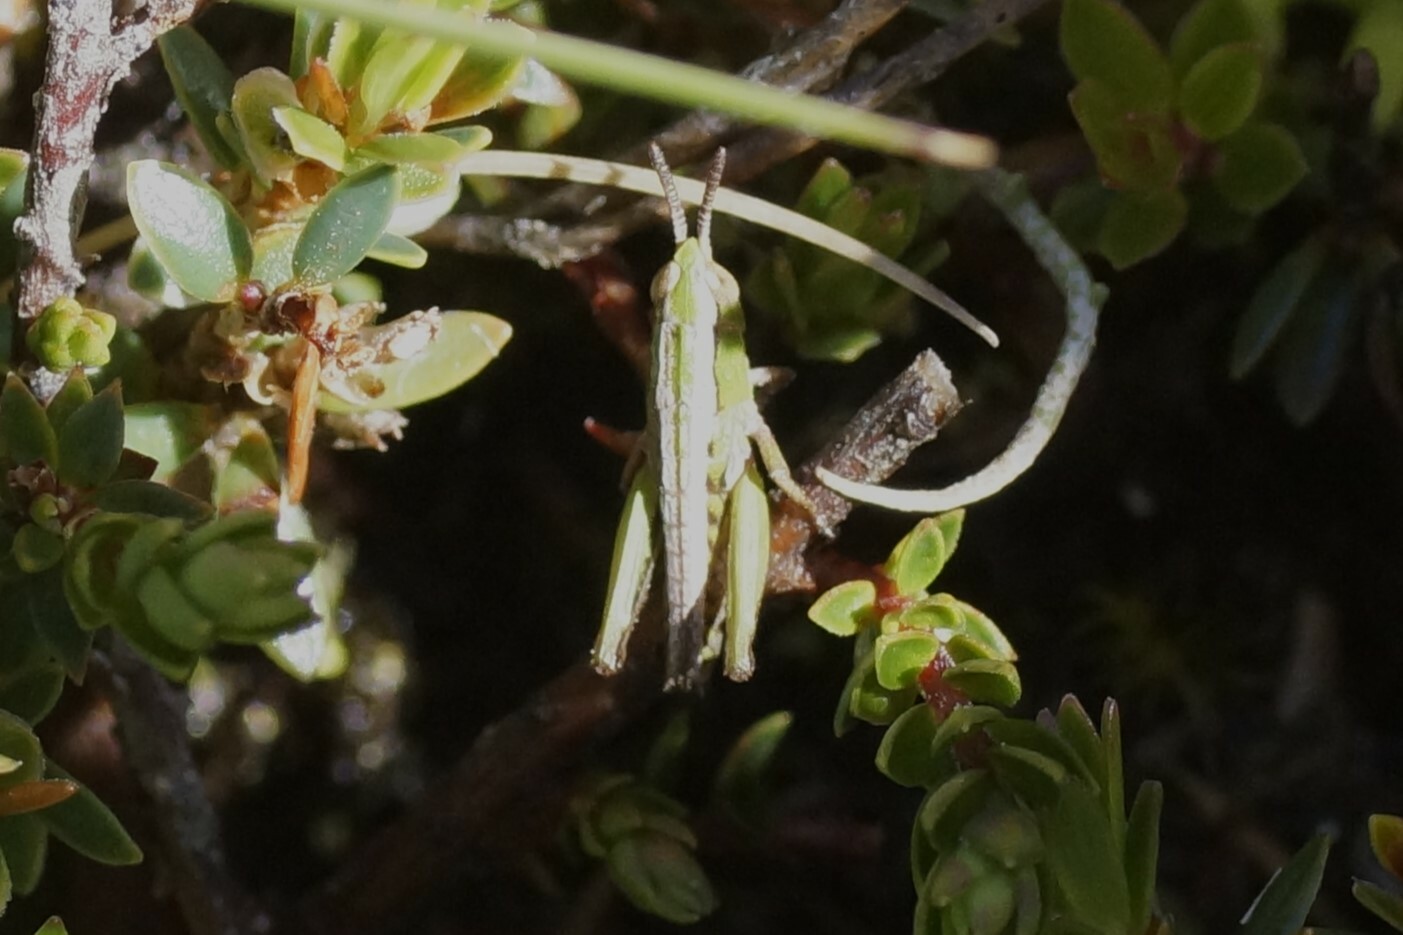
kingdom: Animalia
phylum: Arthropoda
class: Insecta
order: Orthoptera
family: Acrididae
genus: Russalpia
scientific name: Russalpia albertisi
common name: Tassie hopper
